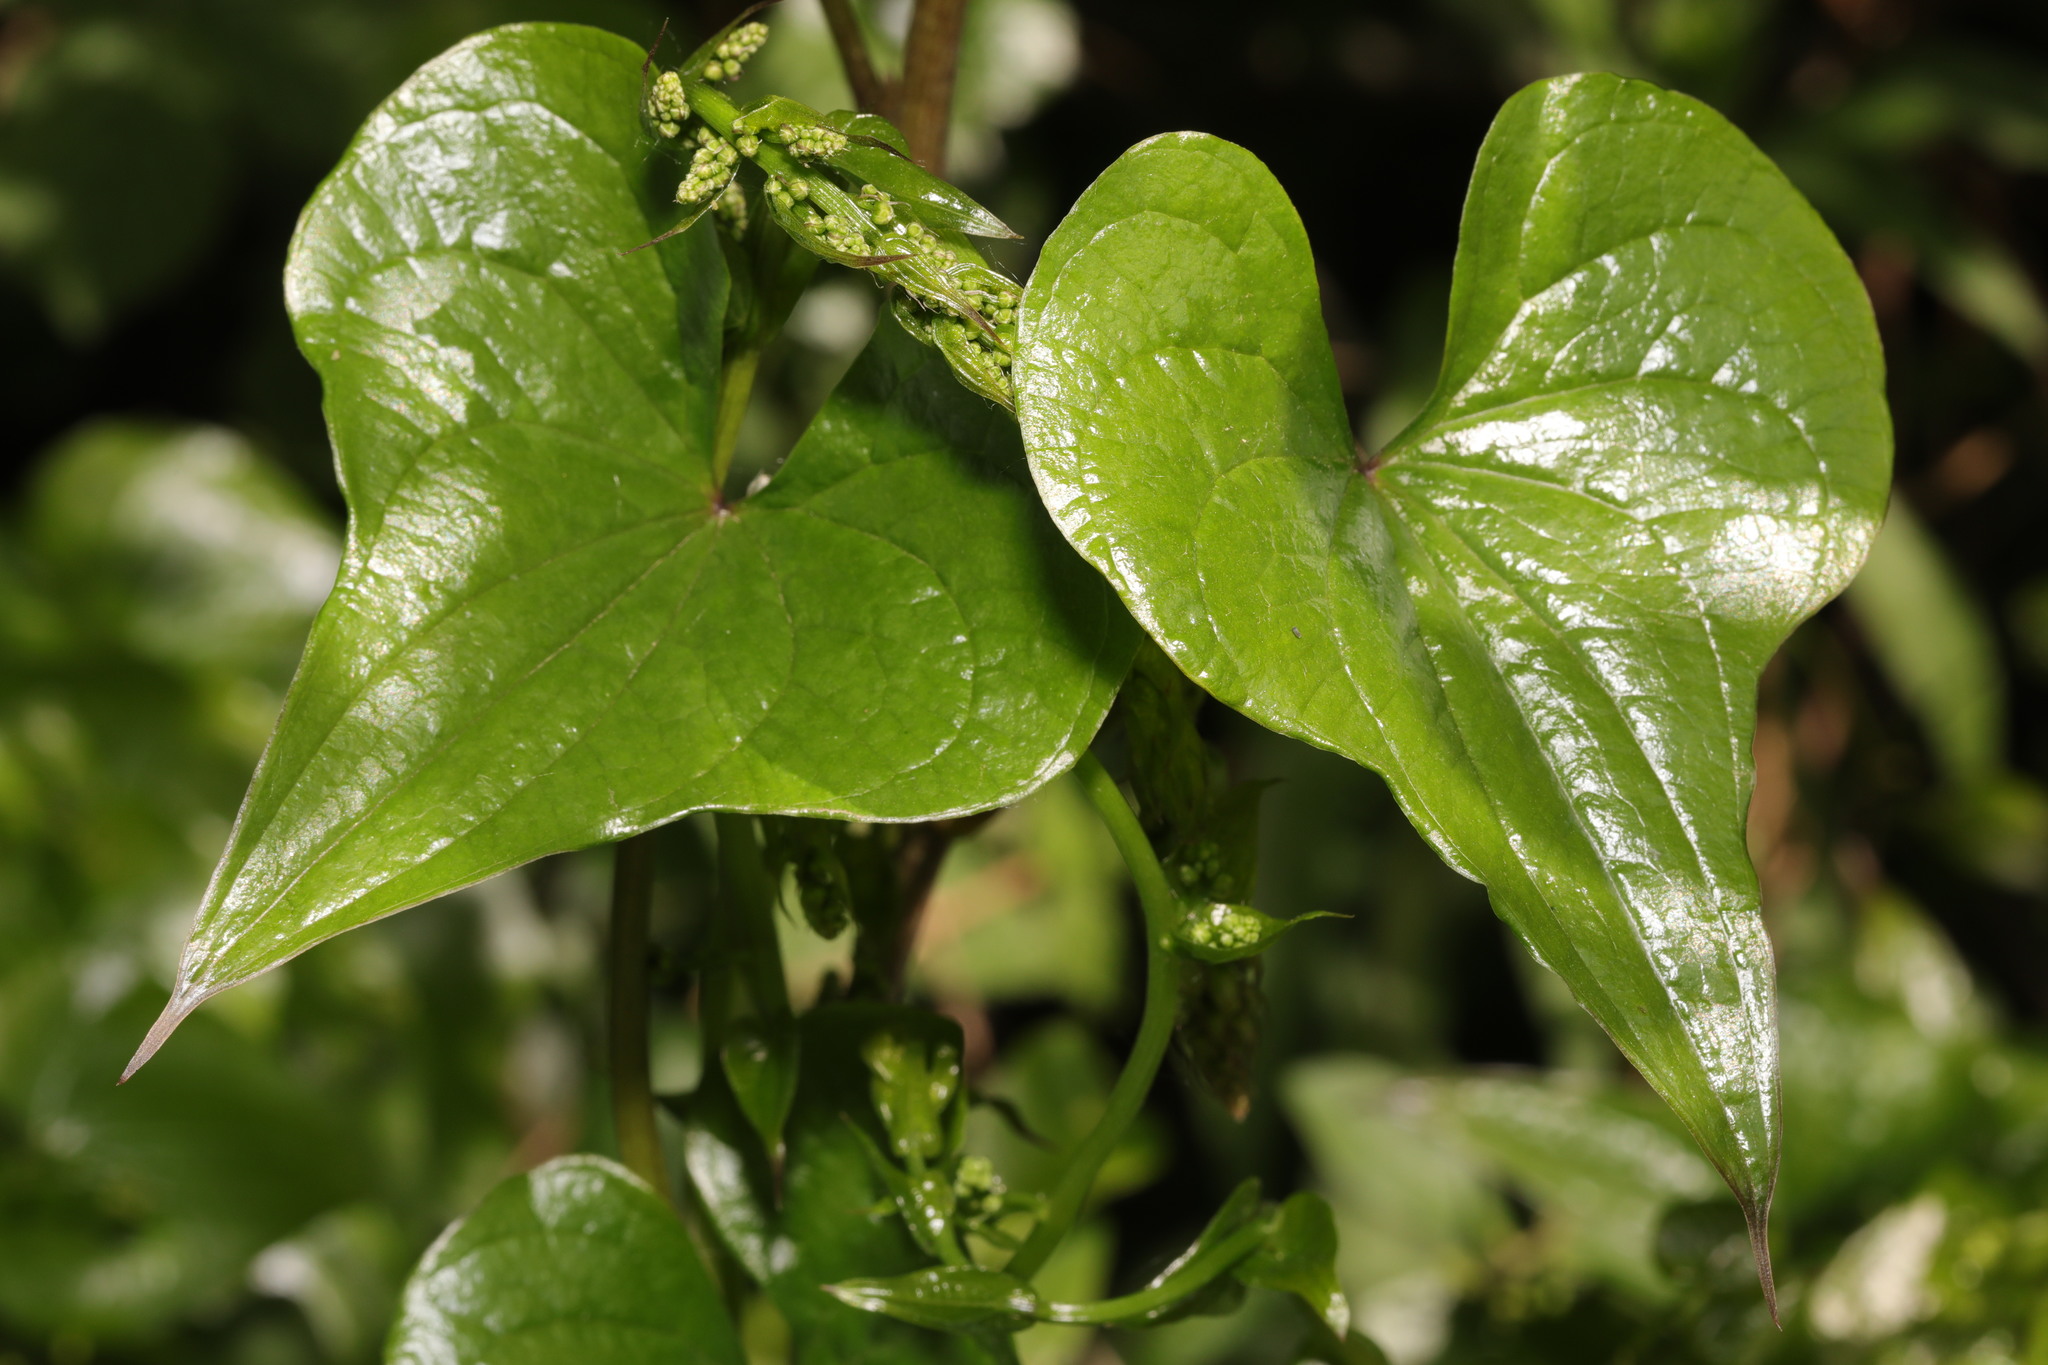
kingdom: Plantae
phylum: Tracheophyta
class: Liliopsida
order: Dioscoreales
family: Dioscoreaceae
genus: Dioscorea
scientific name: Dioscorea communis
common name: Black-bindweed
